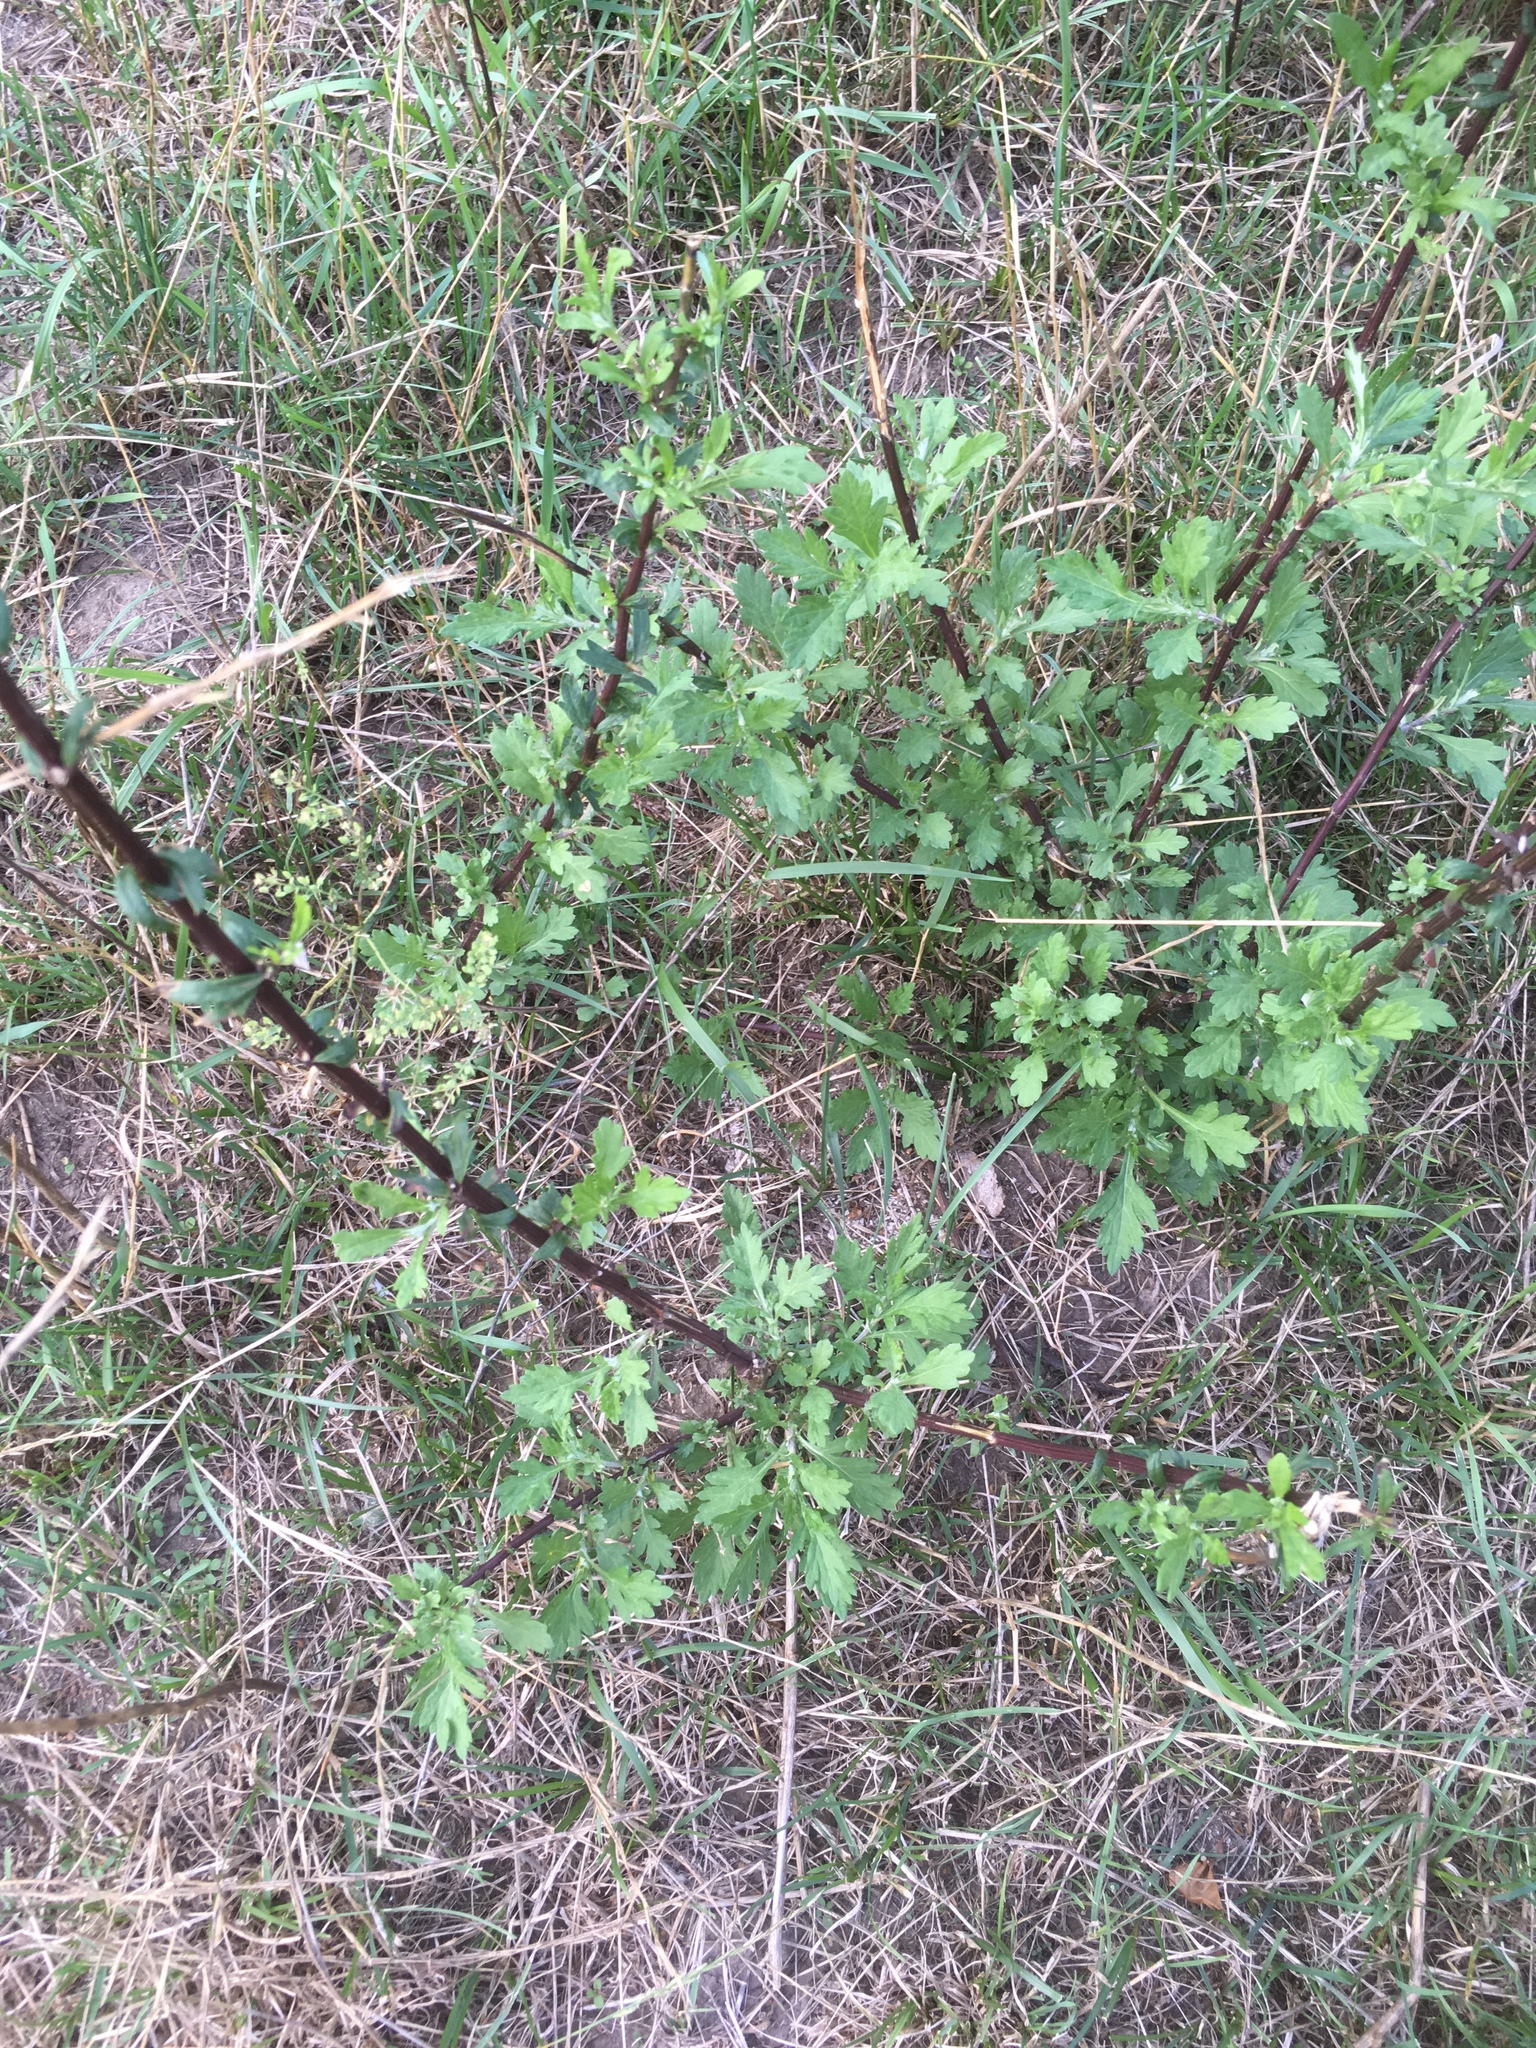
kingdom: Plantae
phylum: Tracheophyta
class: Magnoliopsida
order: Asterales
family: Asteraceae
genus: Artemisia
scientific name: Artemisia vulgaris
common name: Mugwort
